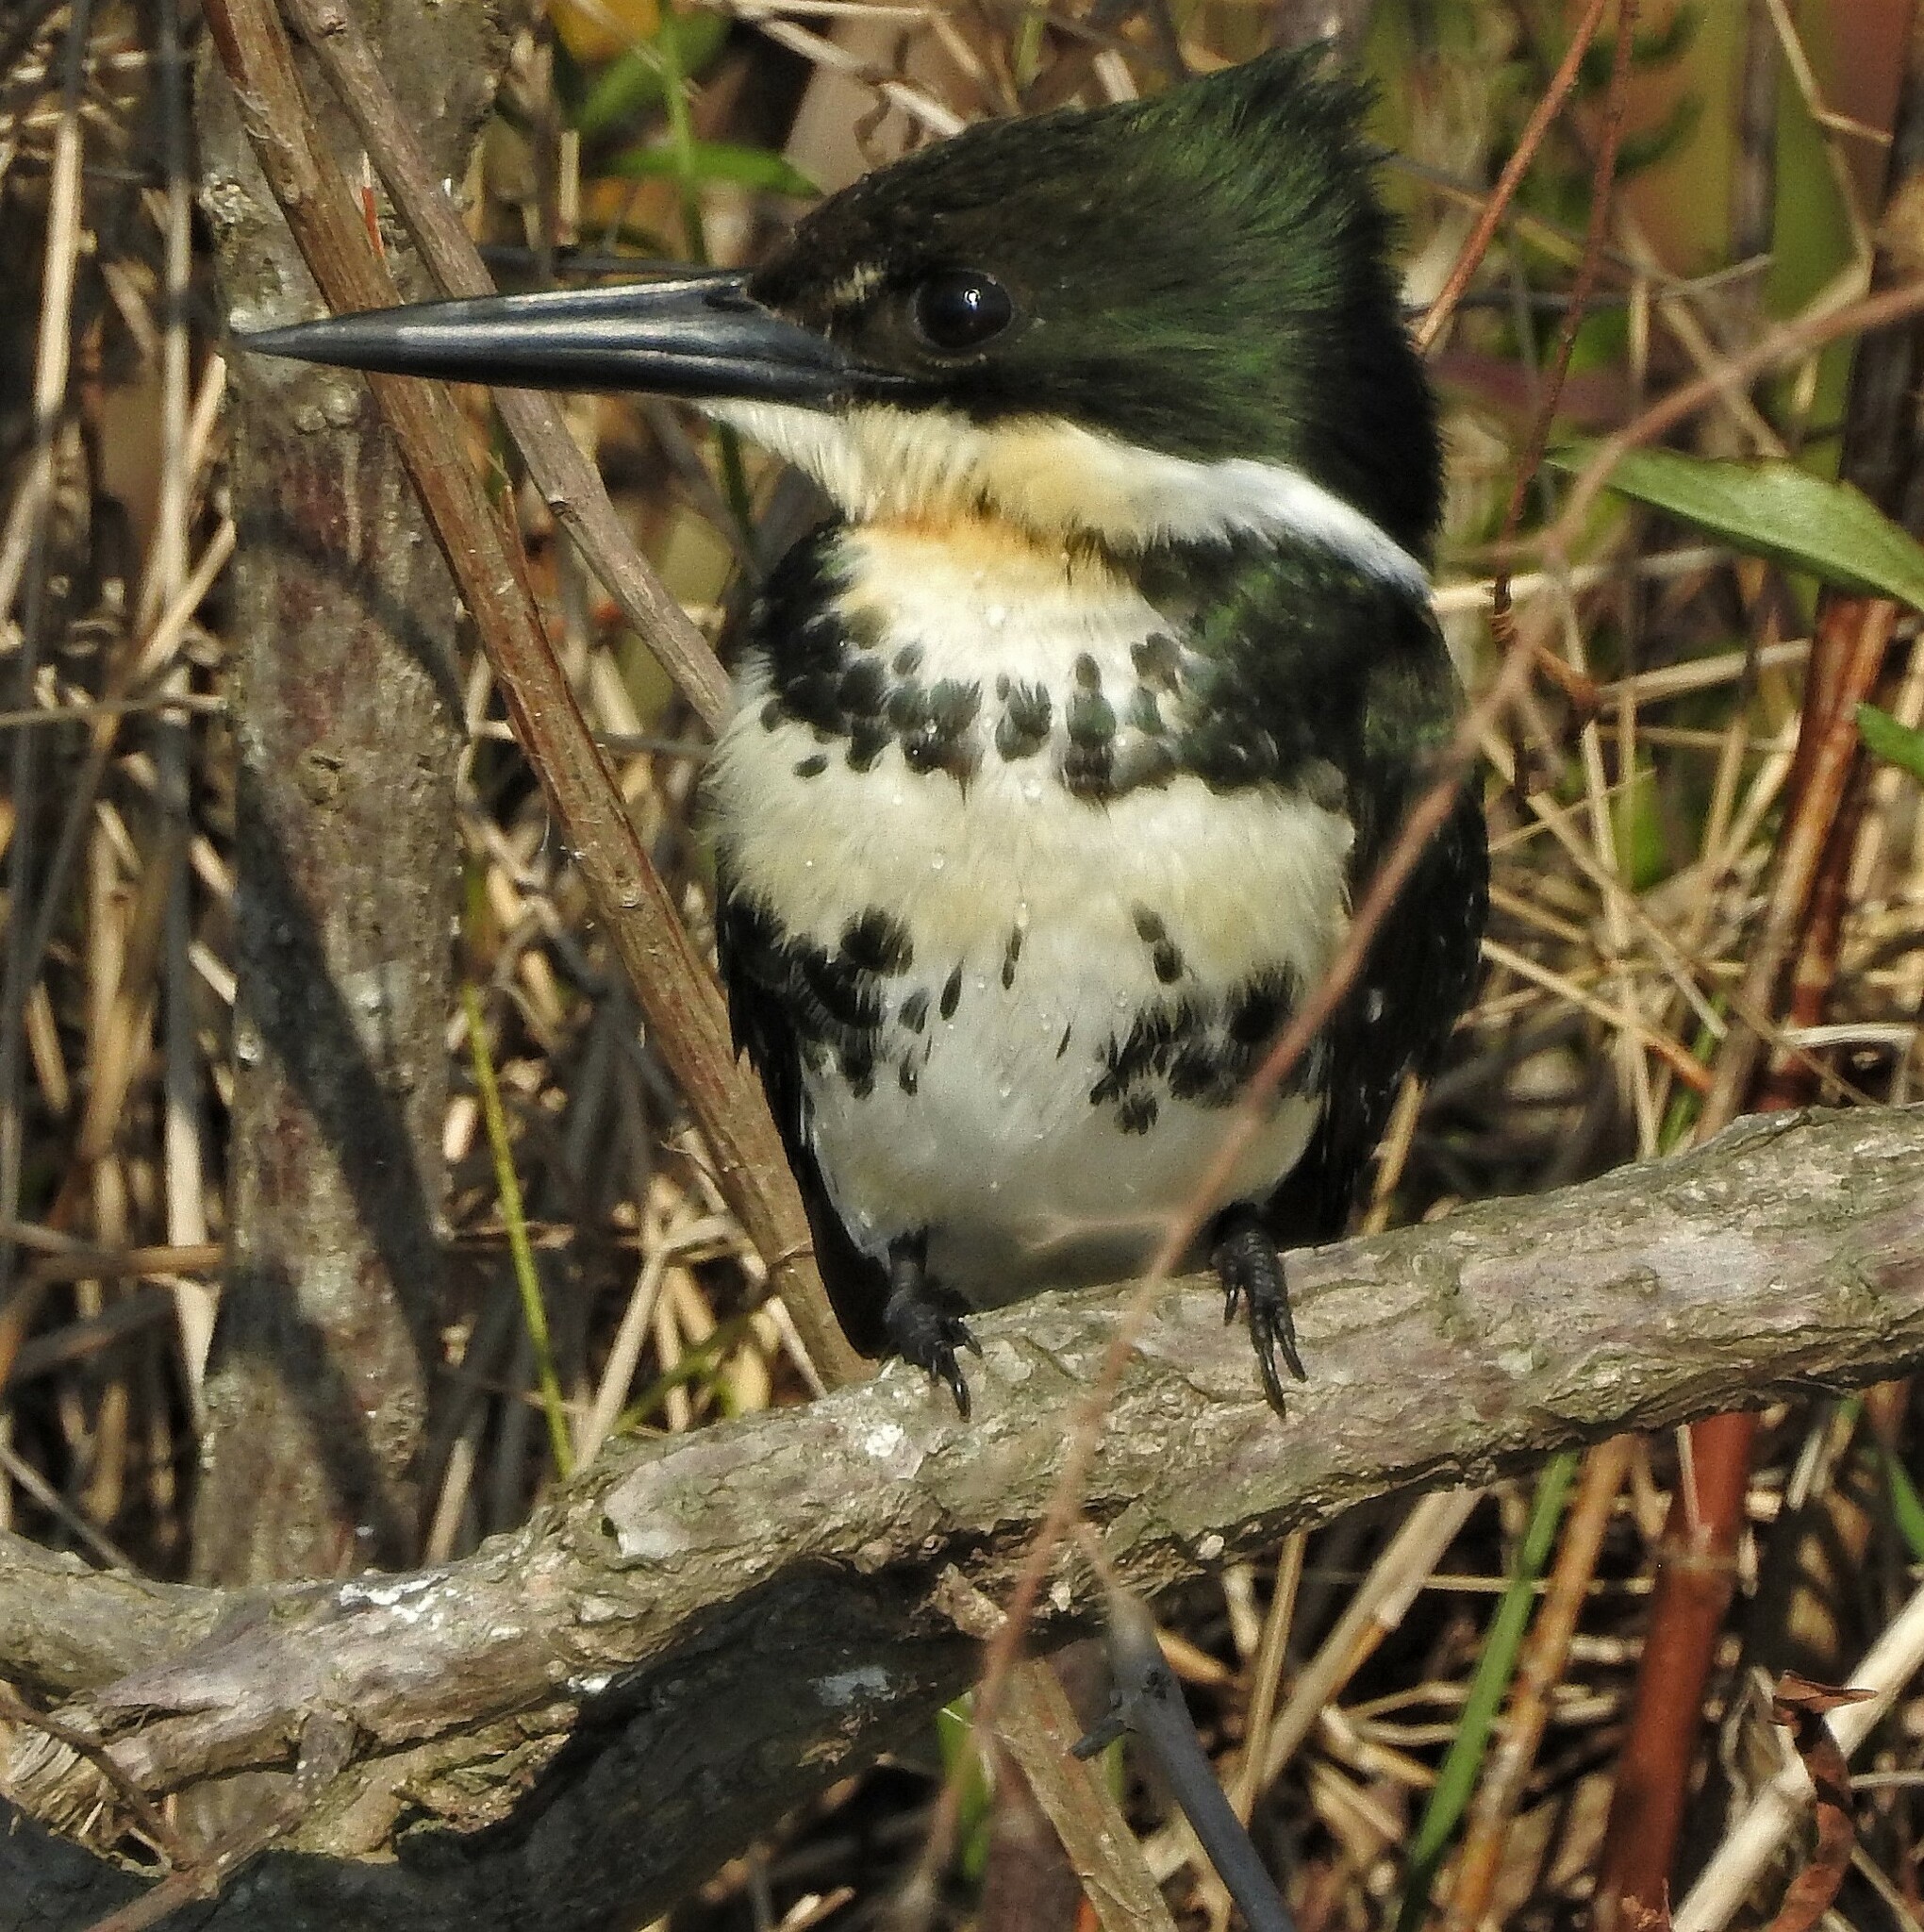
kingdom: Animalia
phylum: Chordata
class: Aves
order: Coraciiformes
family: Alcedinidae
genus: Chloroceryle
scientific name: Chloroceryle americana
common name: Green kingfisher
